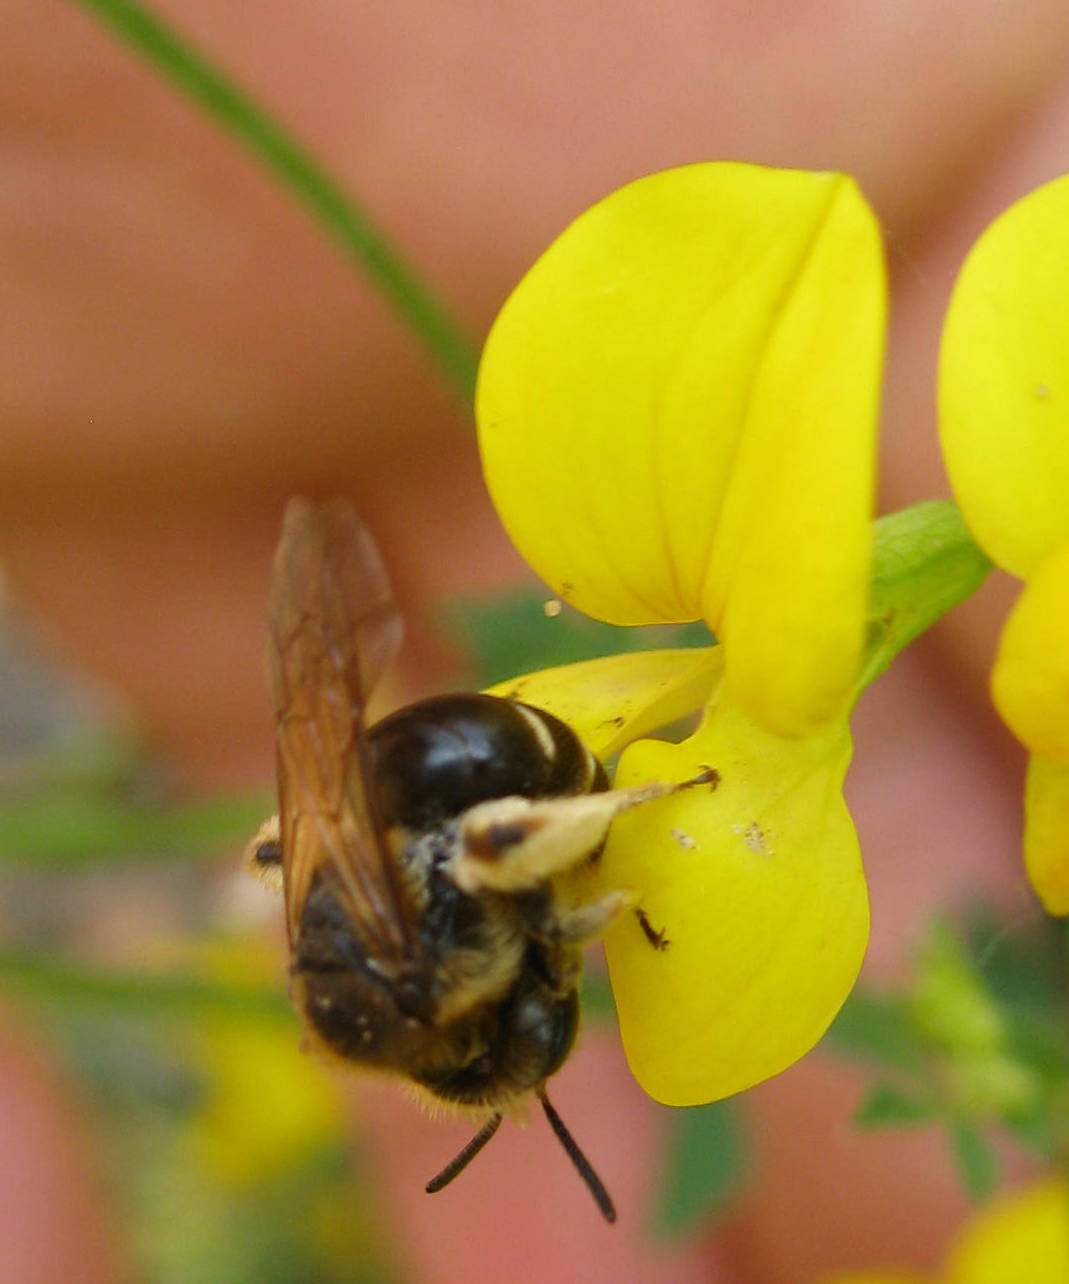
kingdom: Animalia
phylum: Arthropoda
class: Insecta
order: Hymenoptera
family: Andrenidae
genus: Andrena
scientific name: Andrena wilkella
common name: Wilke's mining bee
